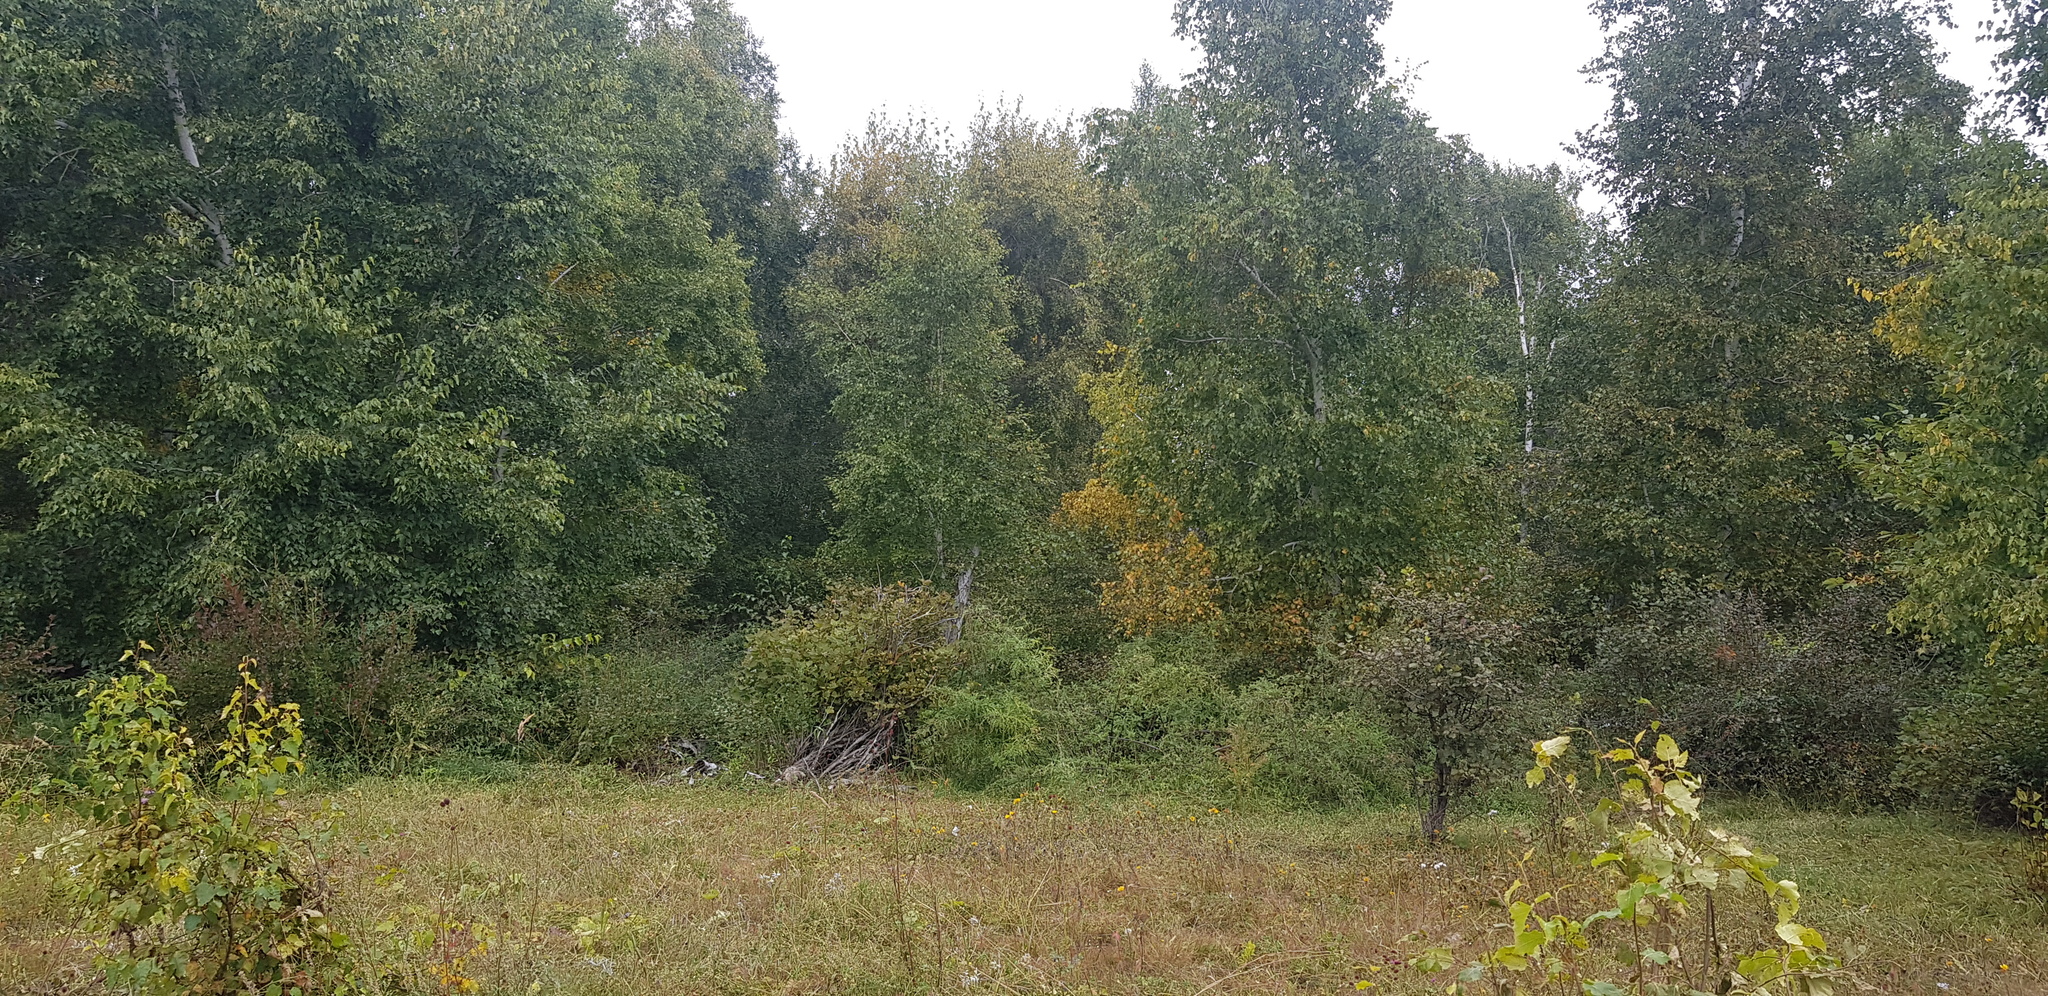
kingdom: Plantae
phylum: Tracheophyta
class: Magnoliopsida
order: Fagales
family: Betulaceae
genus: Betula
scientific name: Betula pendula
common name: Silver birch
